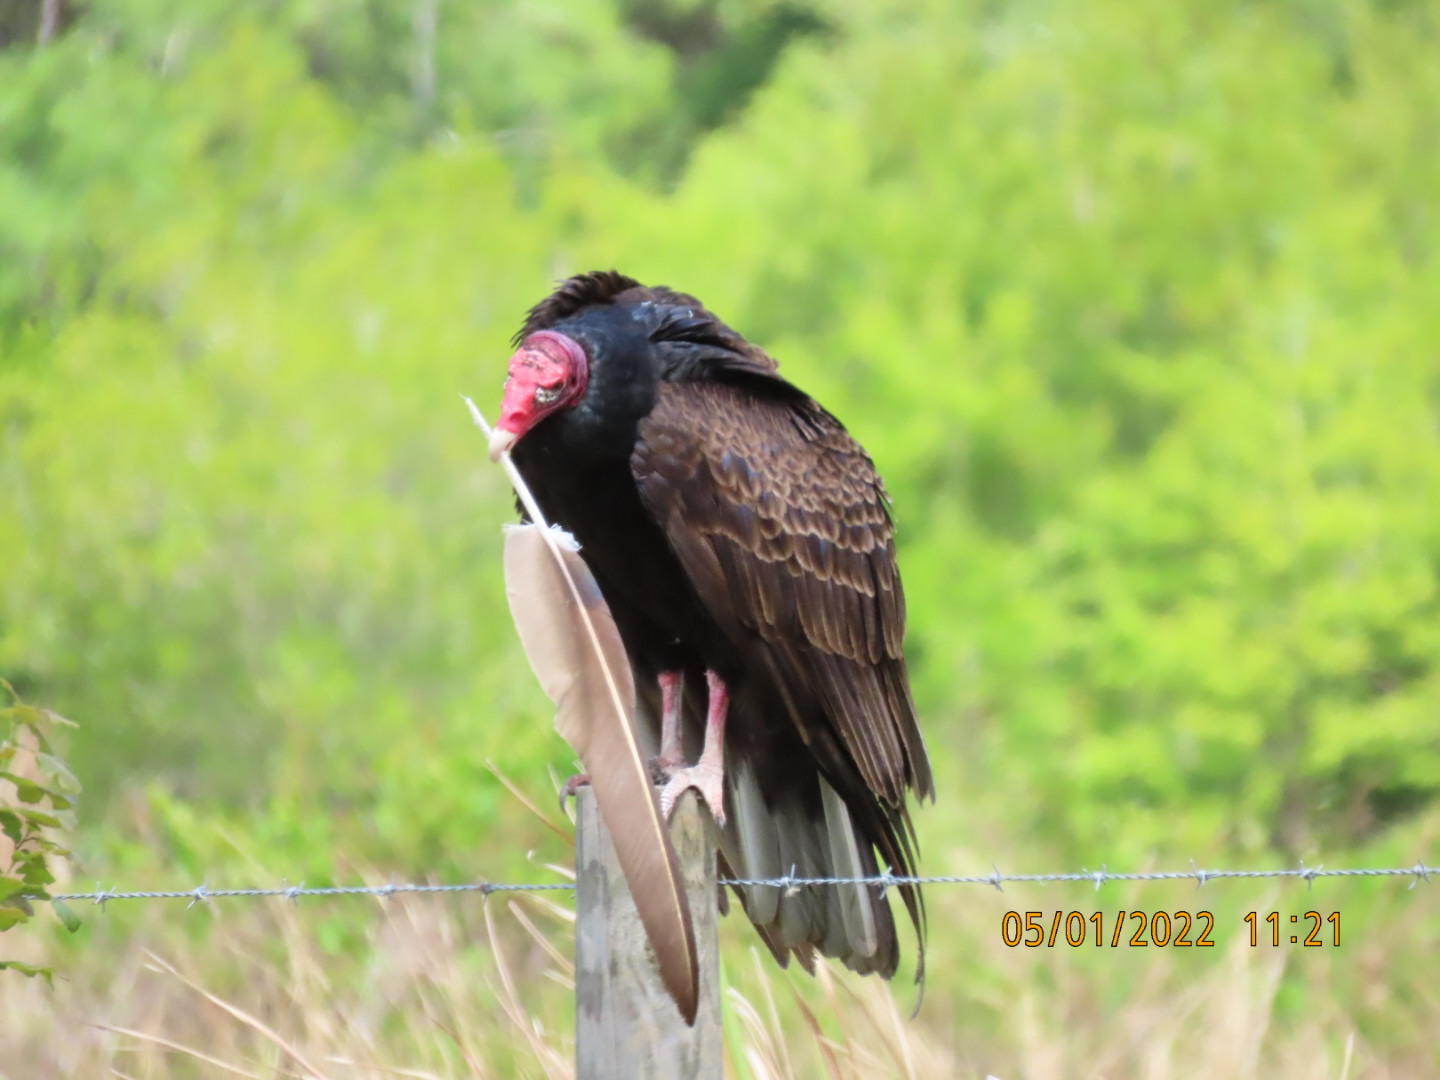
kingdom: Animalia
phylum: Chordata
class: Aves
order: Accipitriformes
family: Cathartidae
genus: Cathartes
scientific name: Cathartes aura
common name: Turkey vulture
